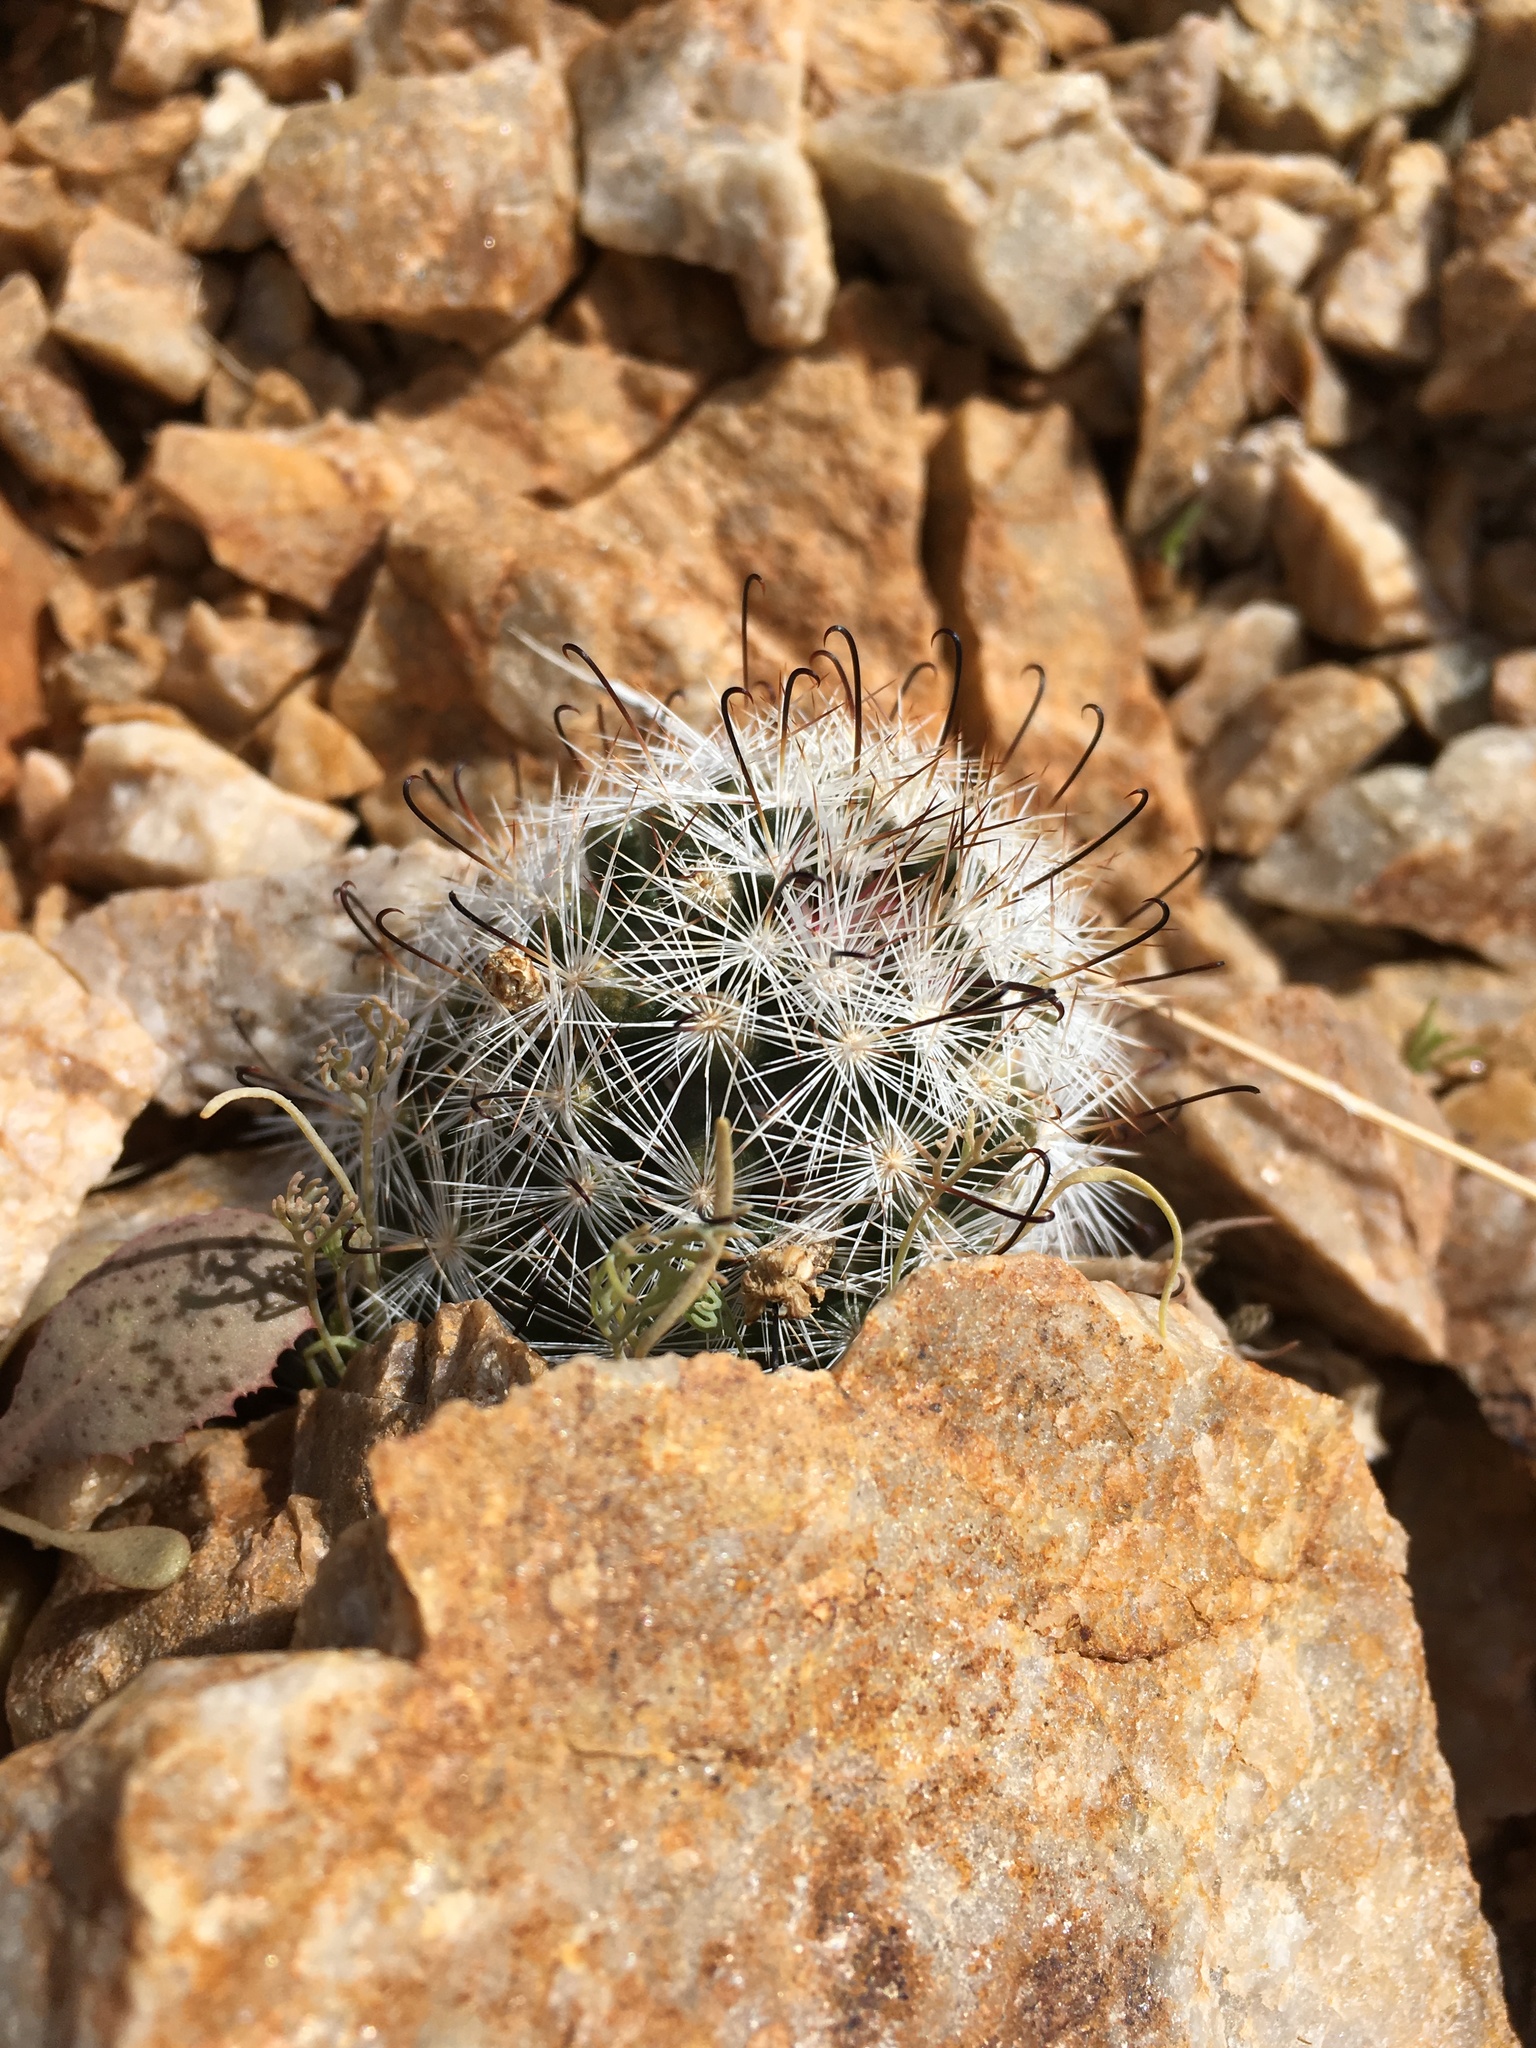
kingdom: Plantae
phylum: Tracheophyta
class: Magnoliopsida
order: Caryophyllales
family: Cactaceae
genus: Cochemiea
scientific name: Cochemiea tetrancistra
